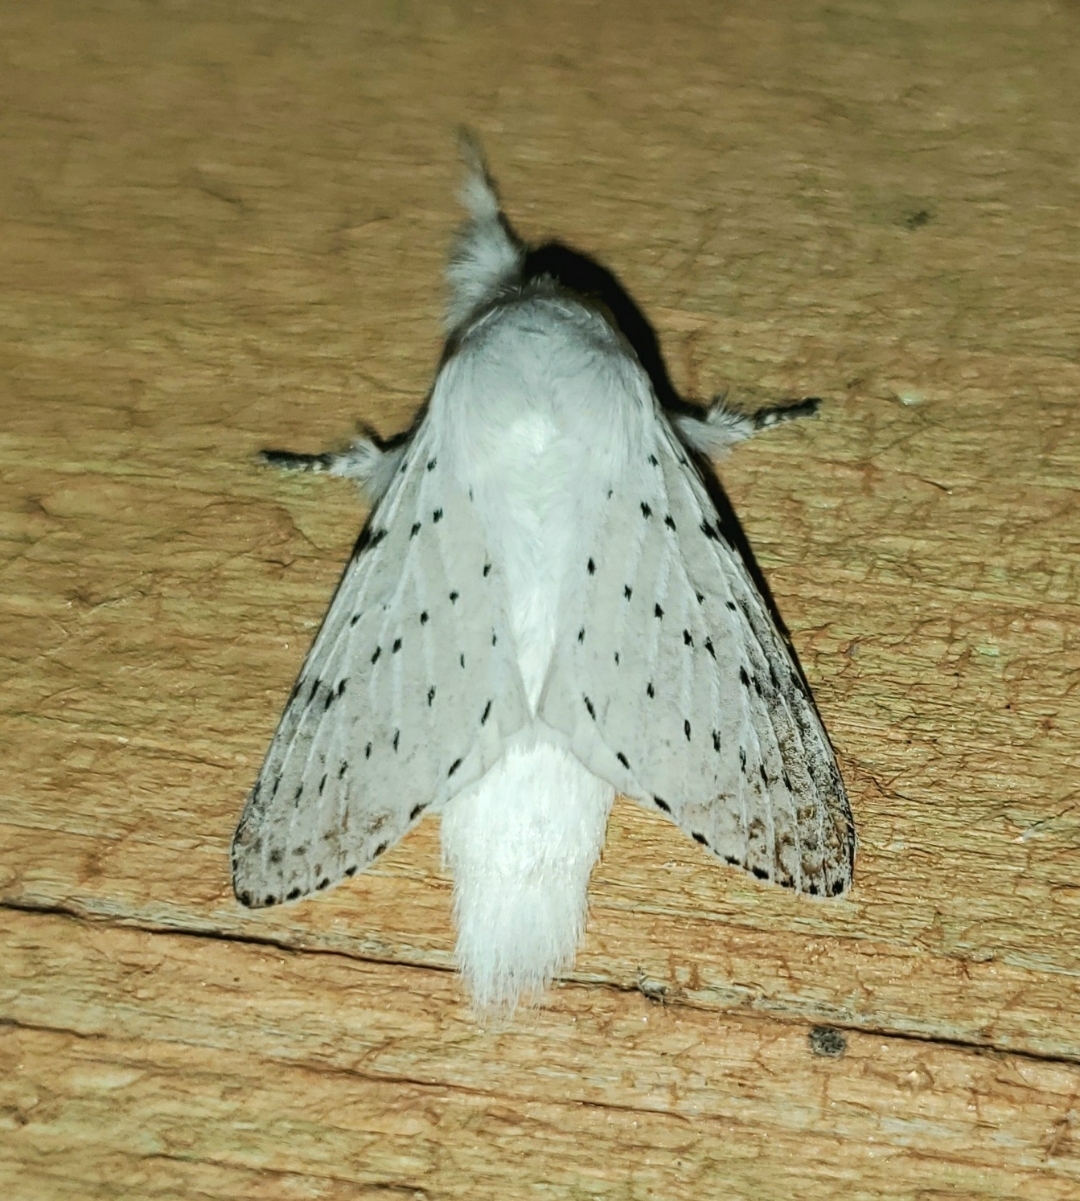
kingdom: Animalia
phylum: Arthropoda
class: Insecta
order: Lepidoptera
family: Lasiocampidae
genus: Artace
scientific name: Artace cribrarius
